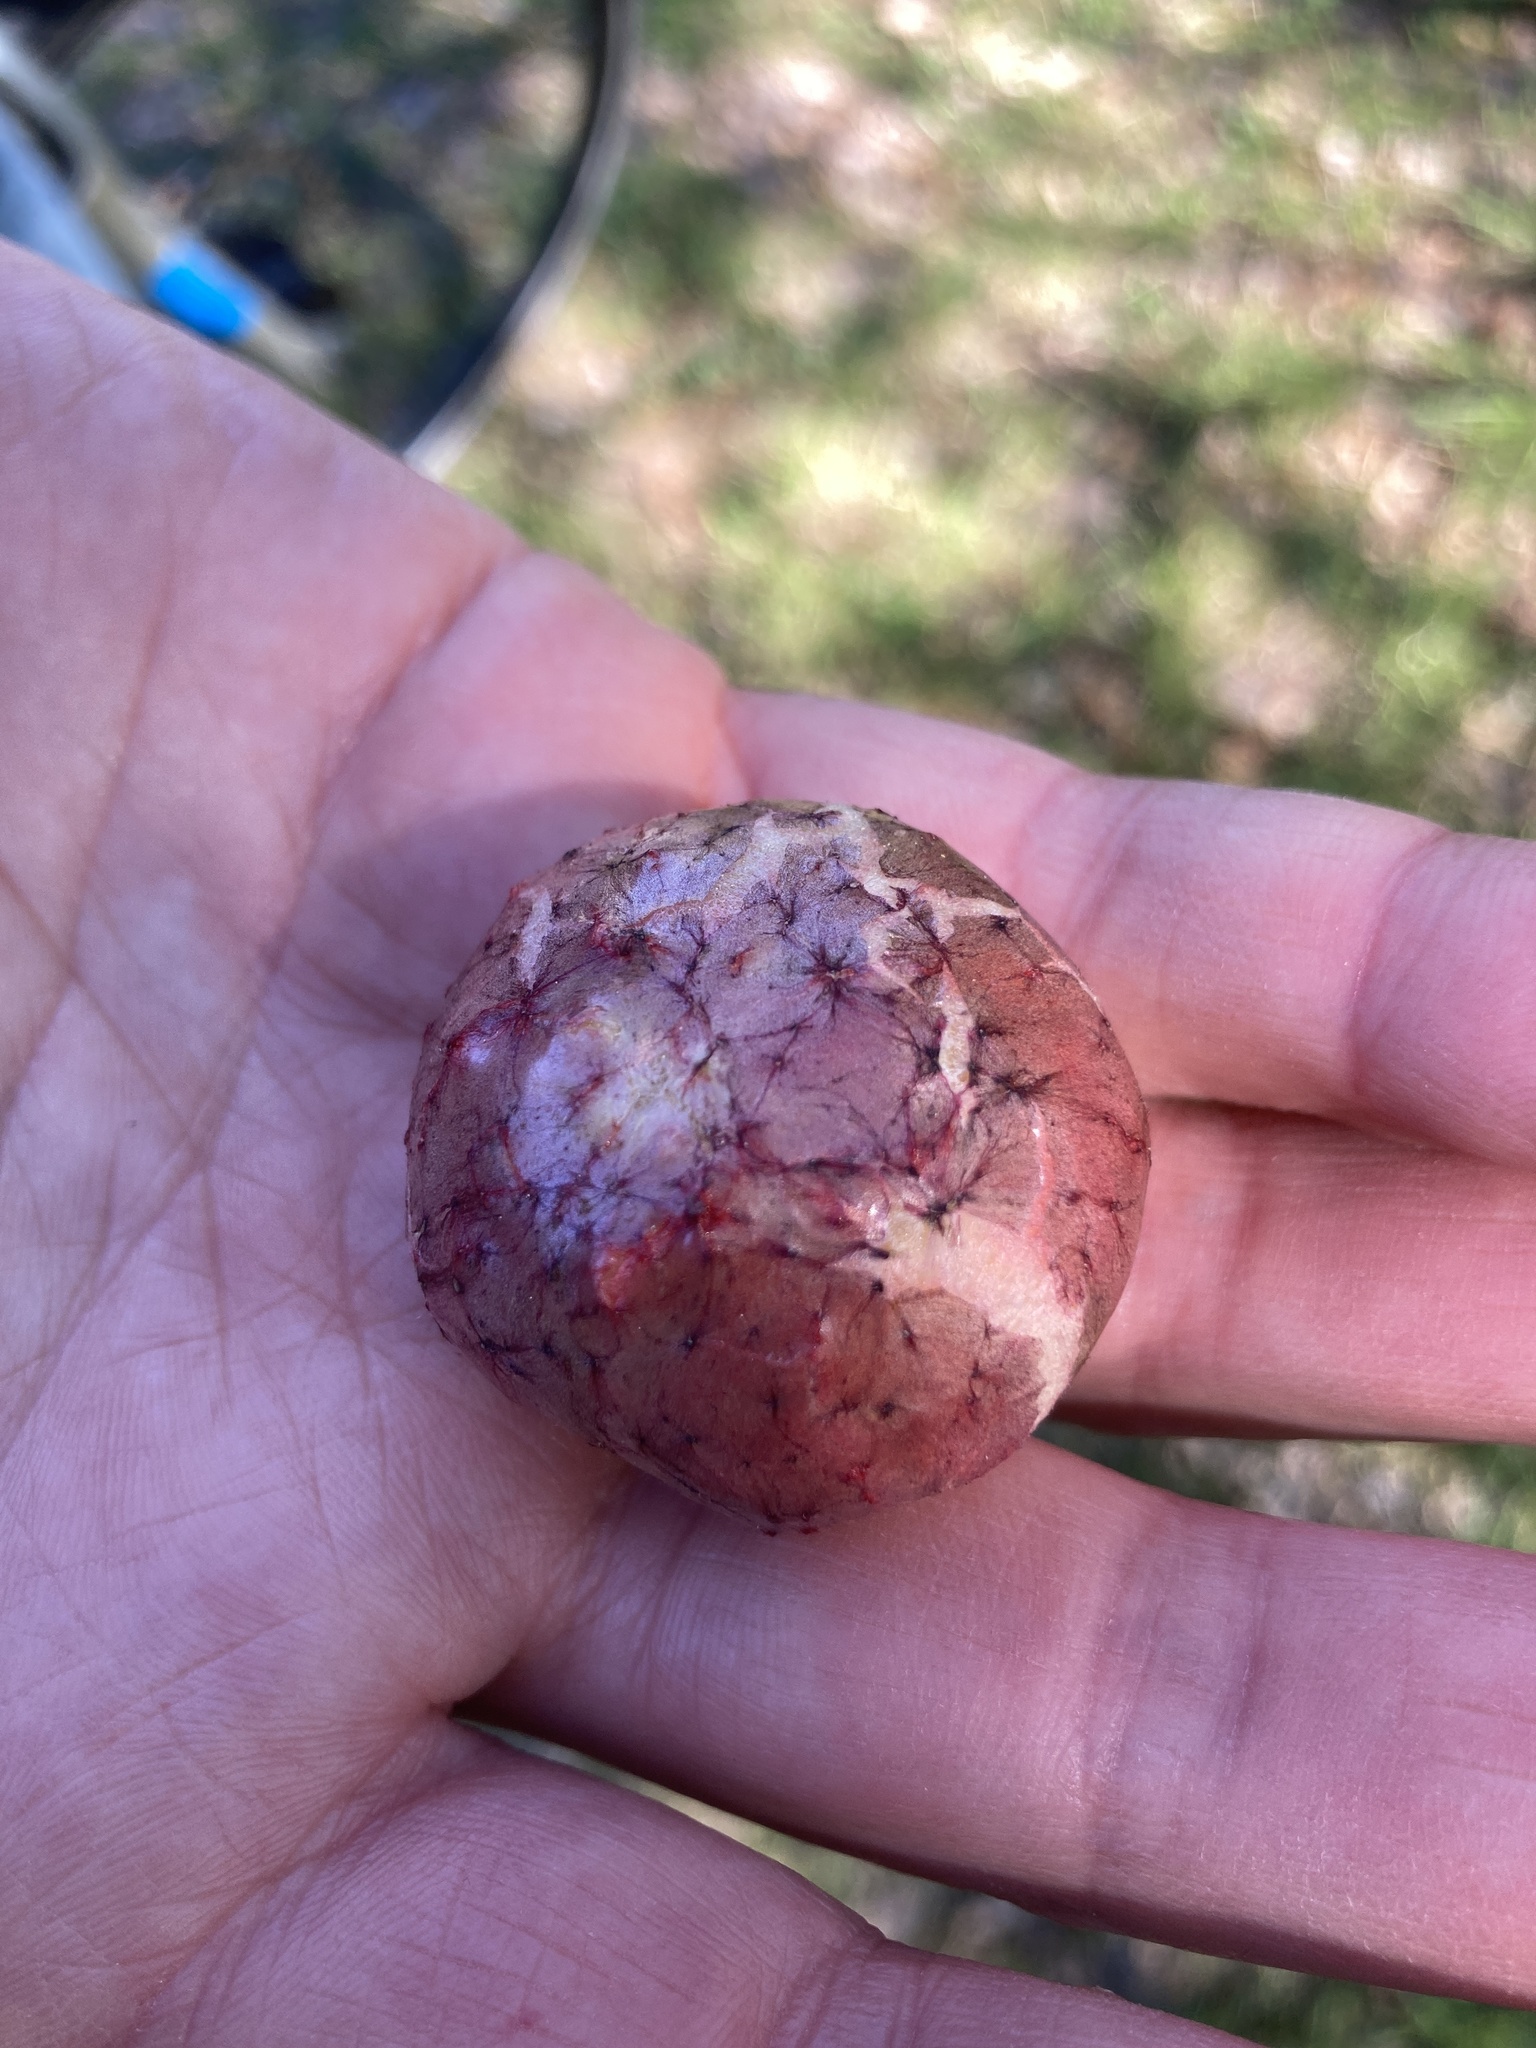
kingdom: Animalia
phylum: Arthropoda
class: Insecta
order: Hymenoptera
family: Cynipidae
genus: Biorhiza
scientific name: Biorhiza pallida
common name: Oak apple
